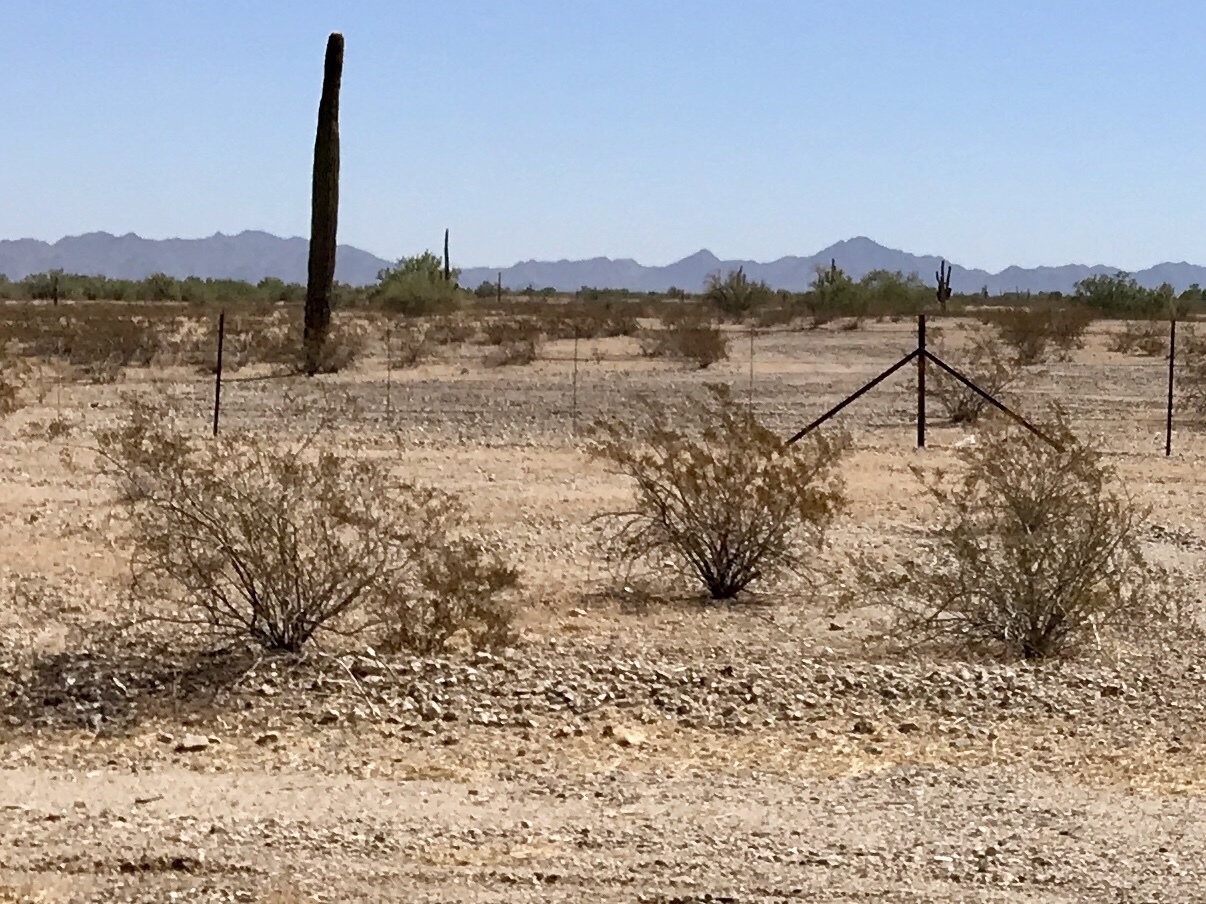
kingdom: Plantae
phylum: Tracheophyta
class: Magnoliopsida
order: Zygophyllales
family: Zygophyllaceae
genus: Larrea
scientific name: Larrea tridentata
